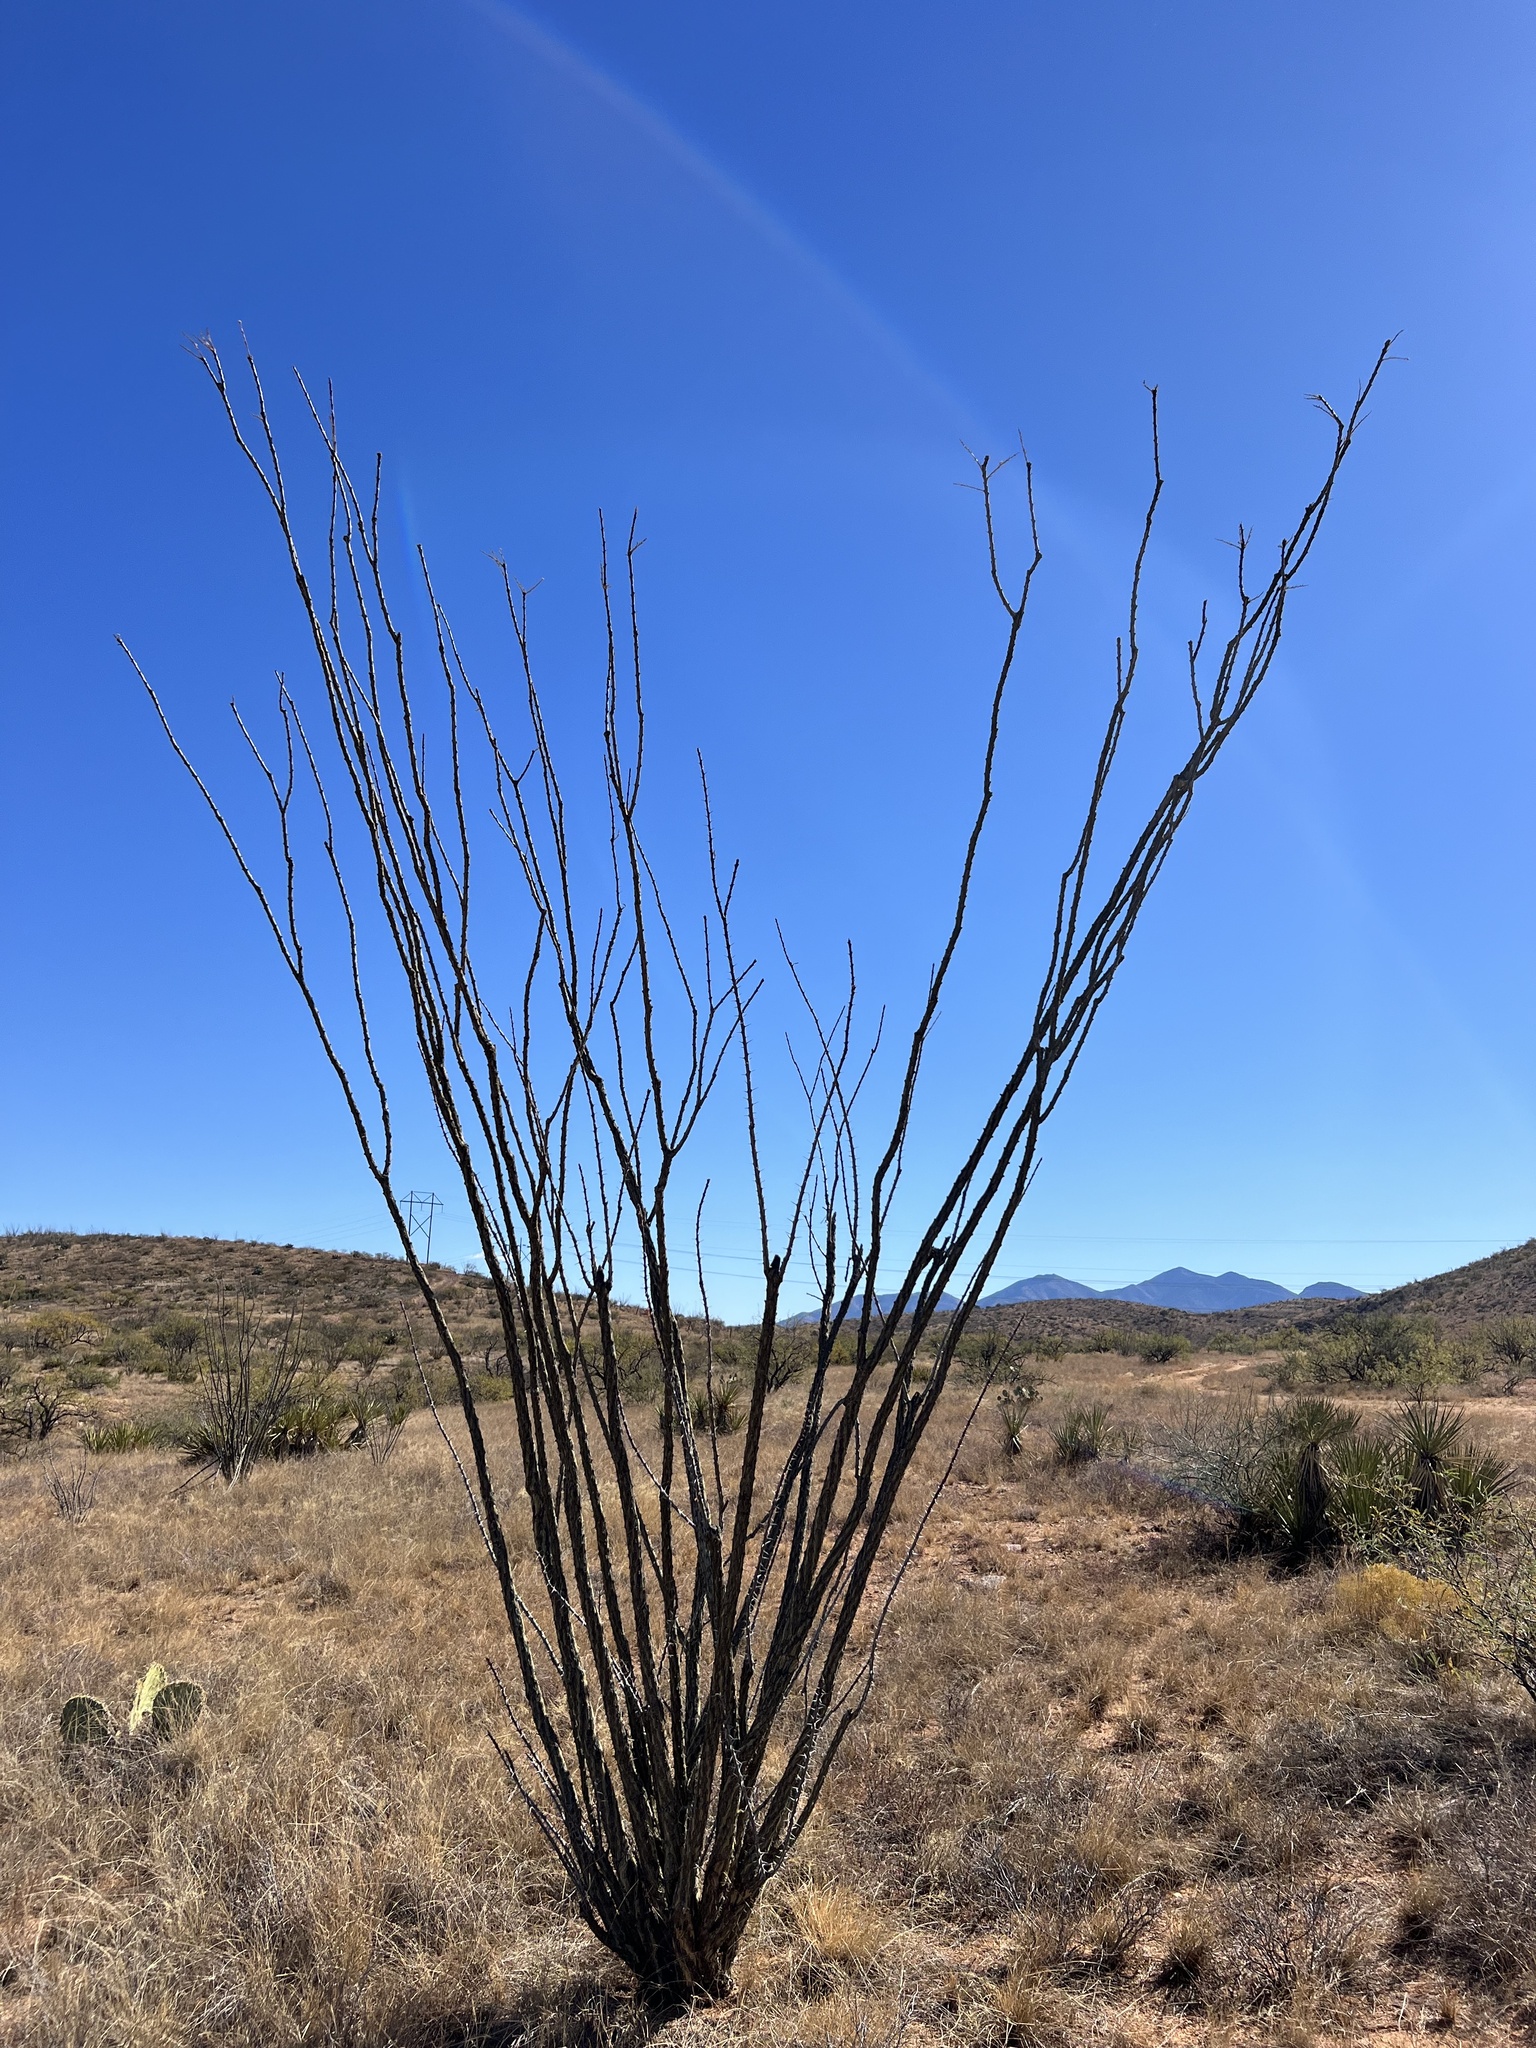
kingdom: Plantae
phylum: Tracheophyta
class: Magnoliopsida
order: Ericales
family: Fouquieriaceae
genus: Fouquieria
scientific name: Fouquieria splendens
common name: Vine-cactus
